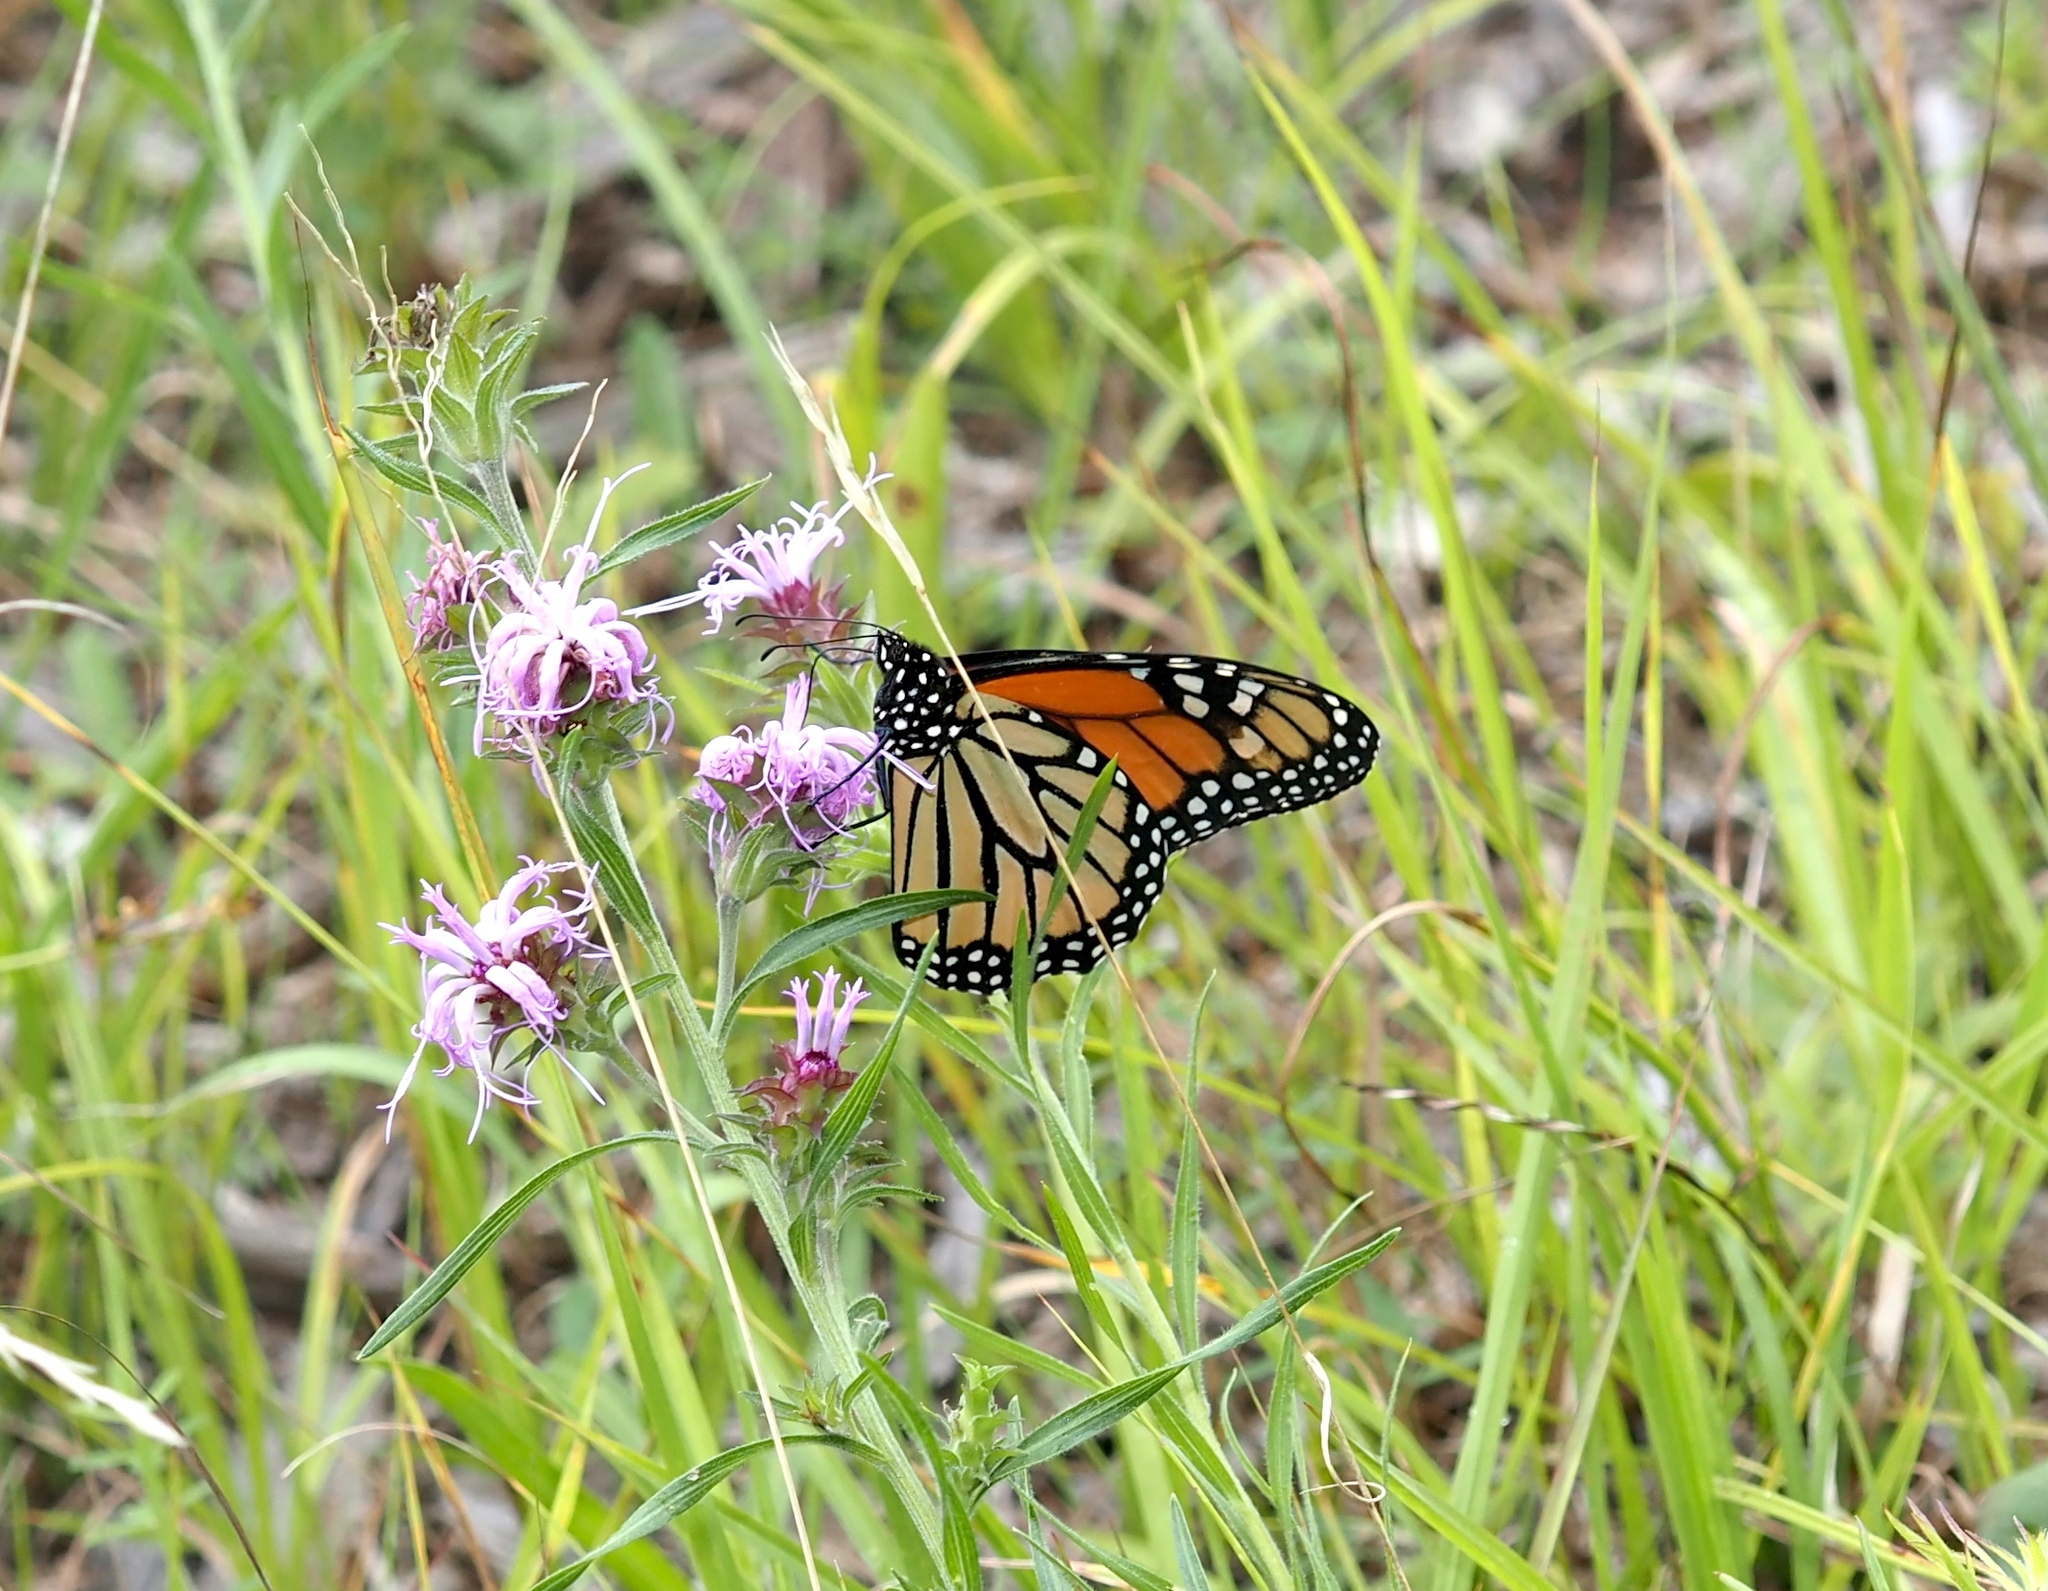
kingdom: Animalia
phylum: Arthropoda
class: Insecta
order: Lepidoptera
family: Nymphalidae
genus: Danaus
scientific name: Danaus plexippus
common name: Monarch
